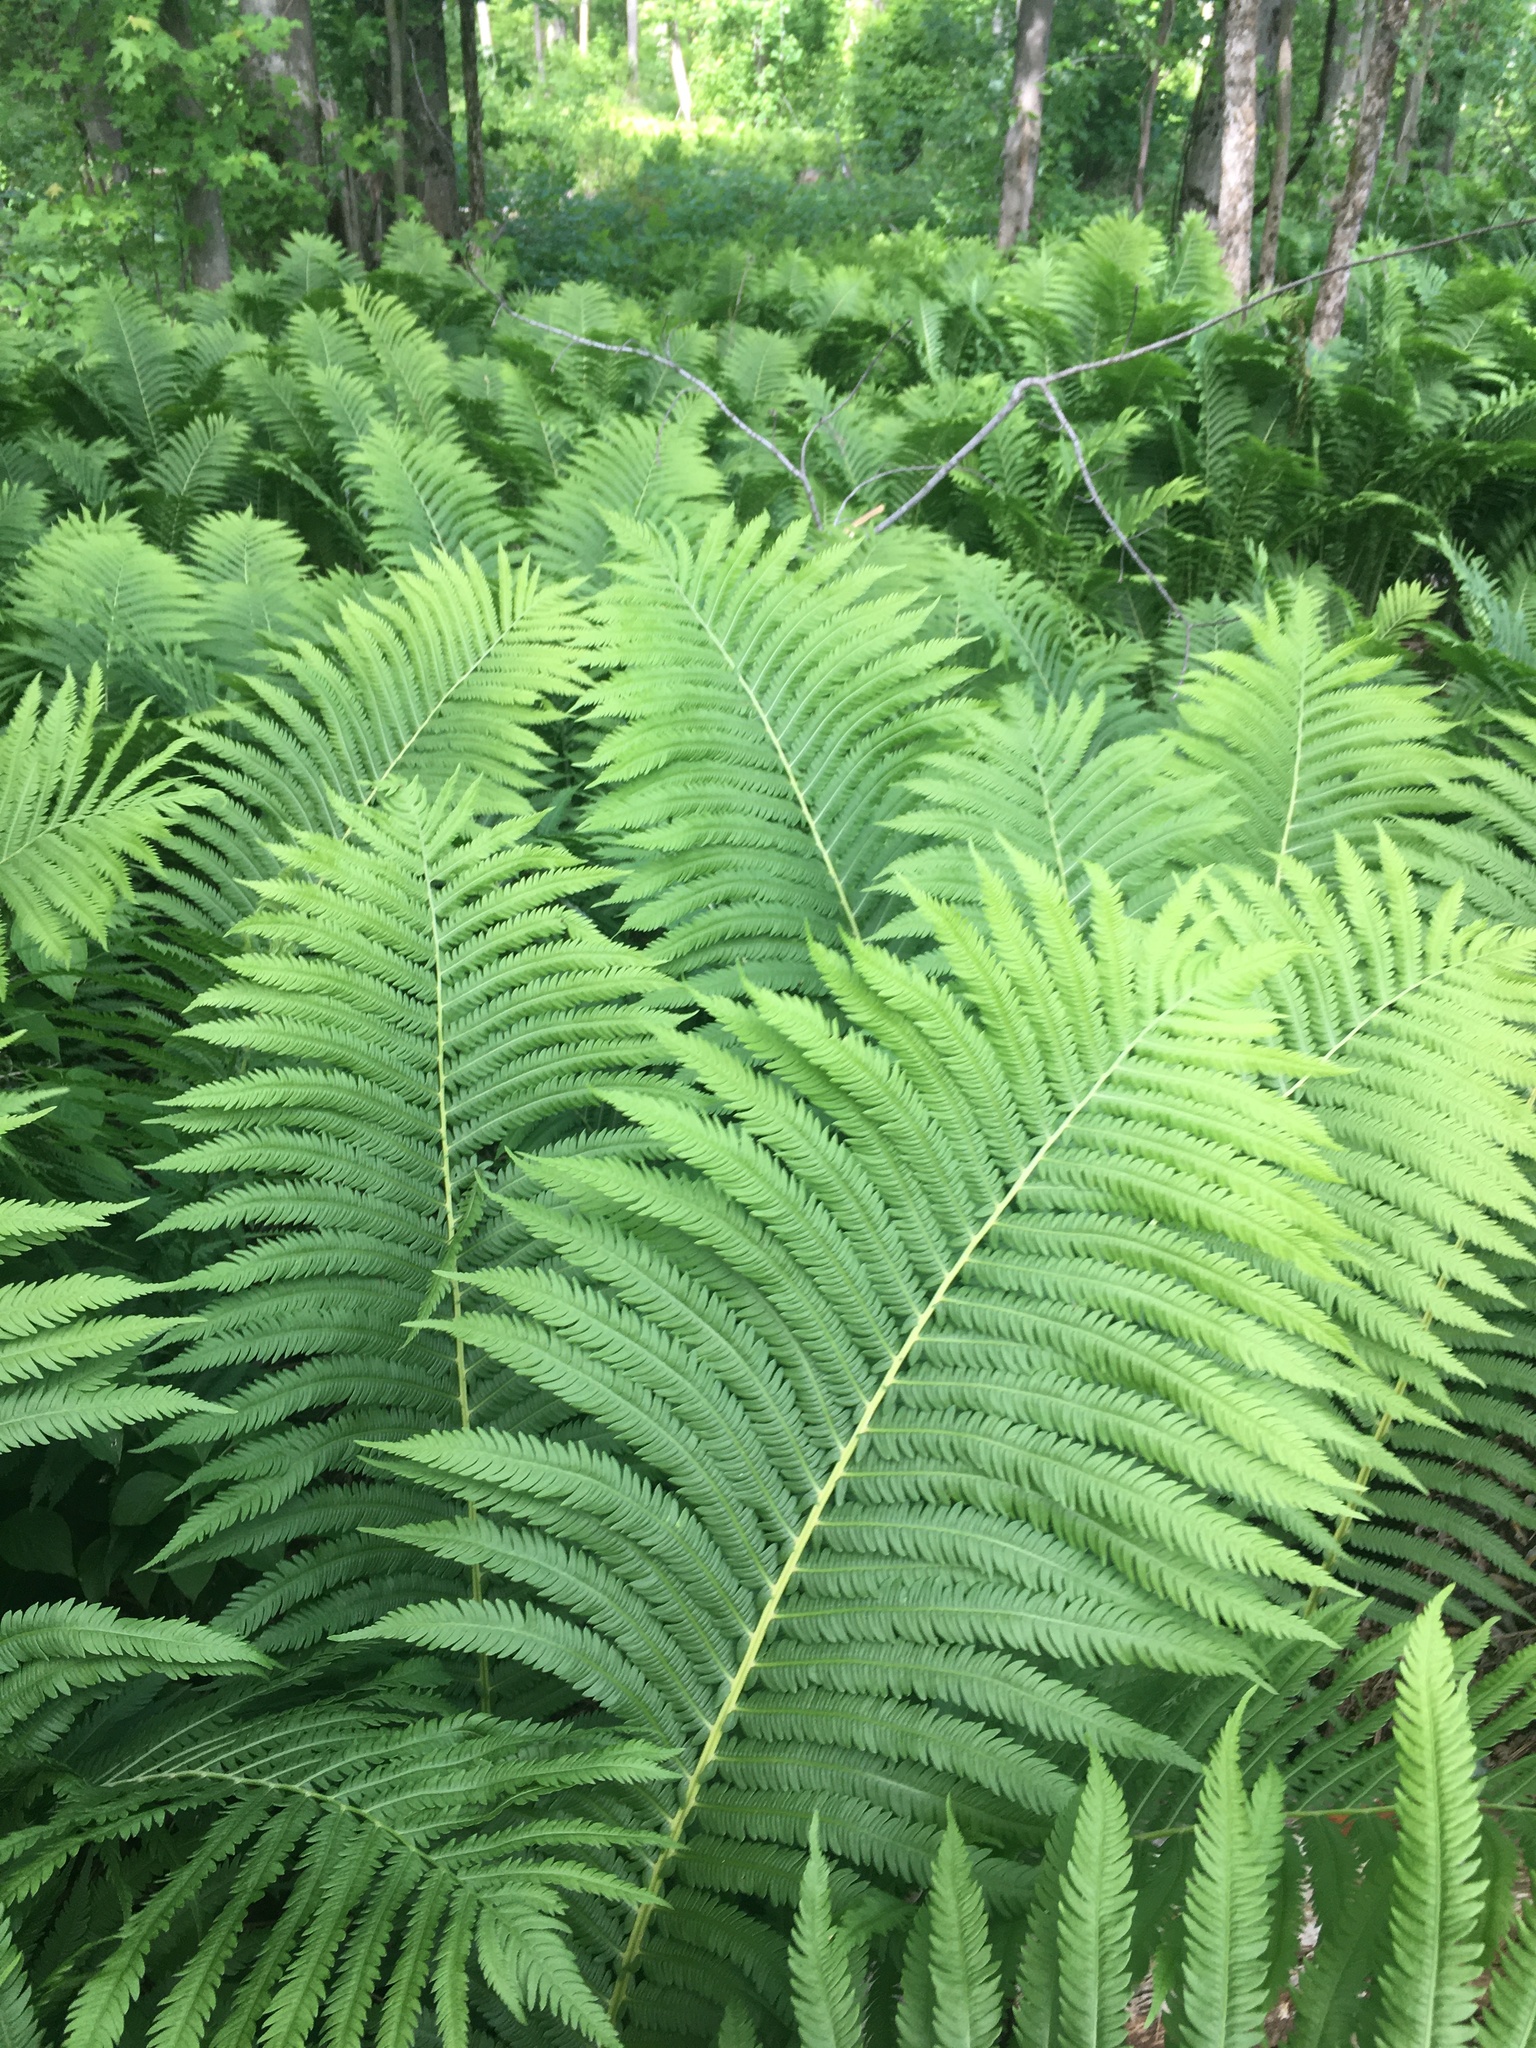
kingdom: Plantae
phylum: Tracheophyta
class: Polypodiopsida
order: Polypodiales
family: Onocleaceae
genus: Matteuccia
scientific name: Matteuccia struthiopteris
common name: Ostrich fern
